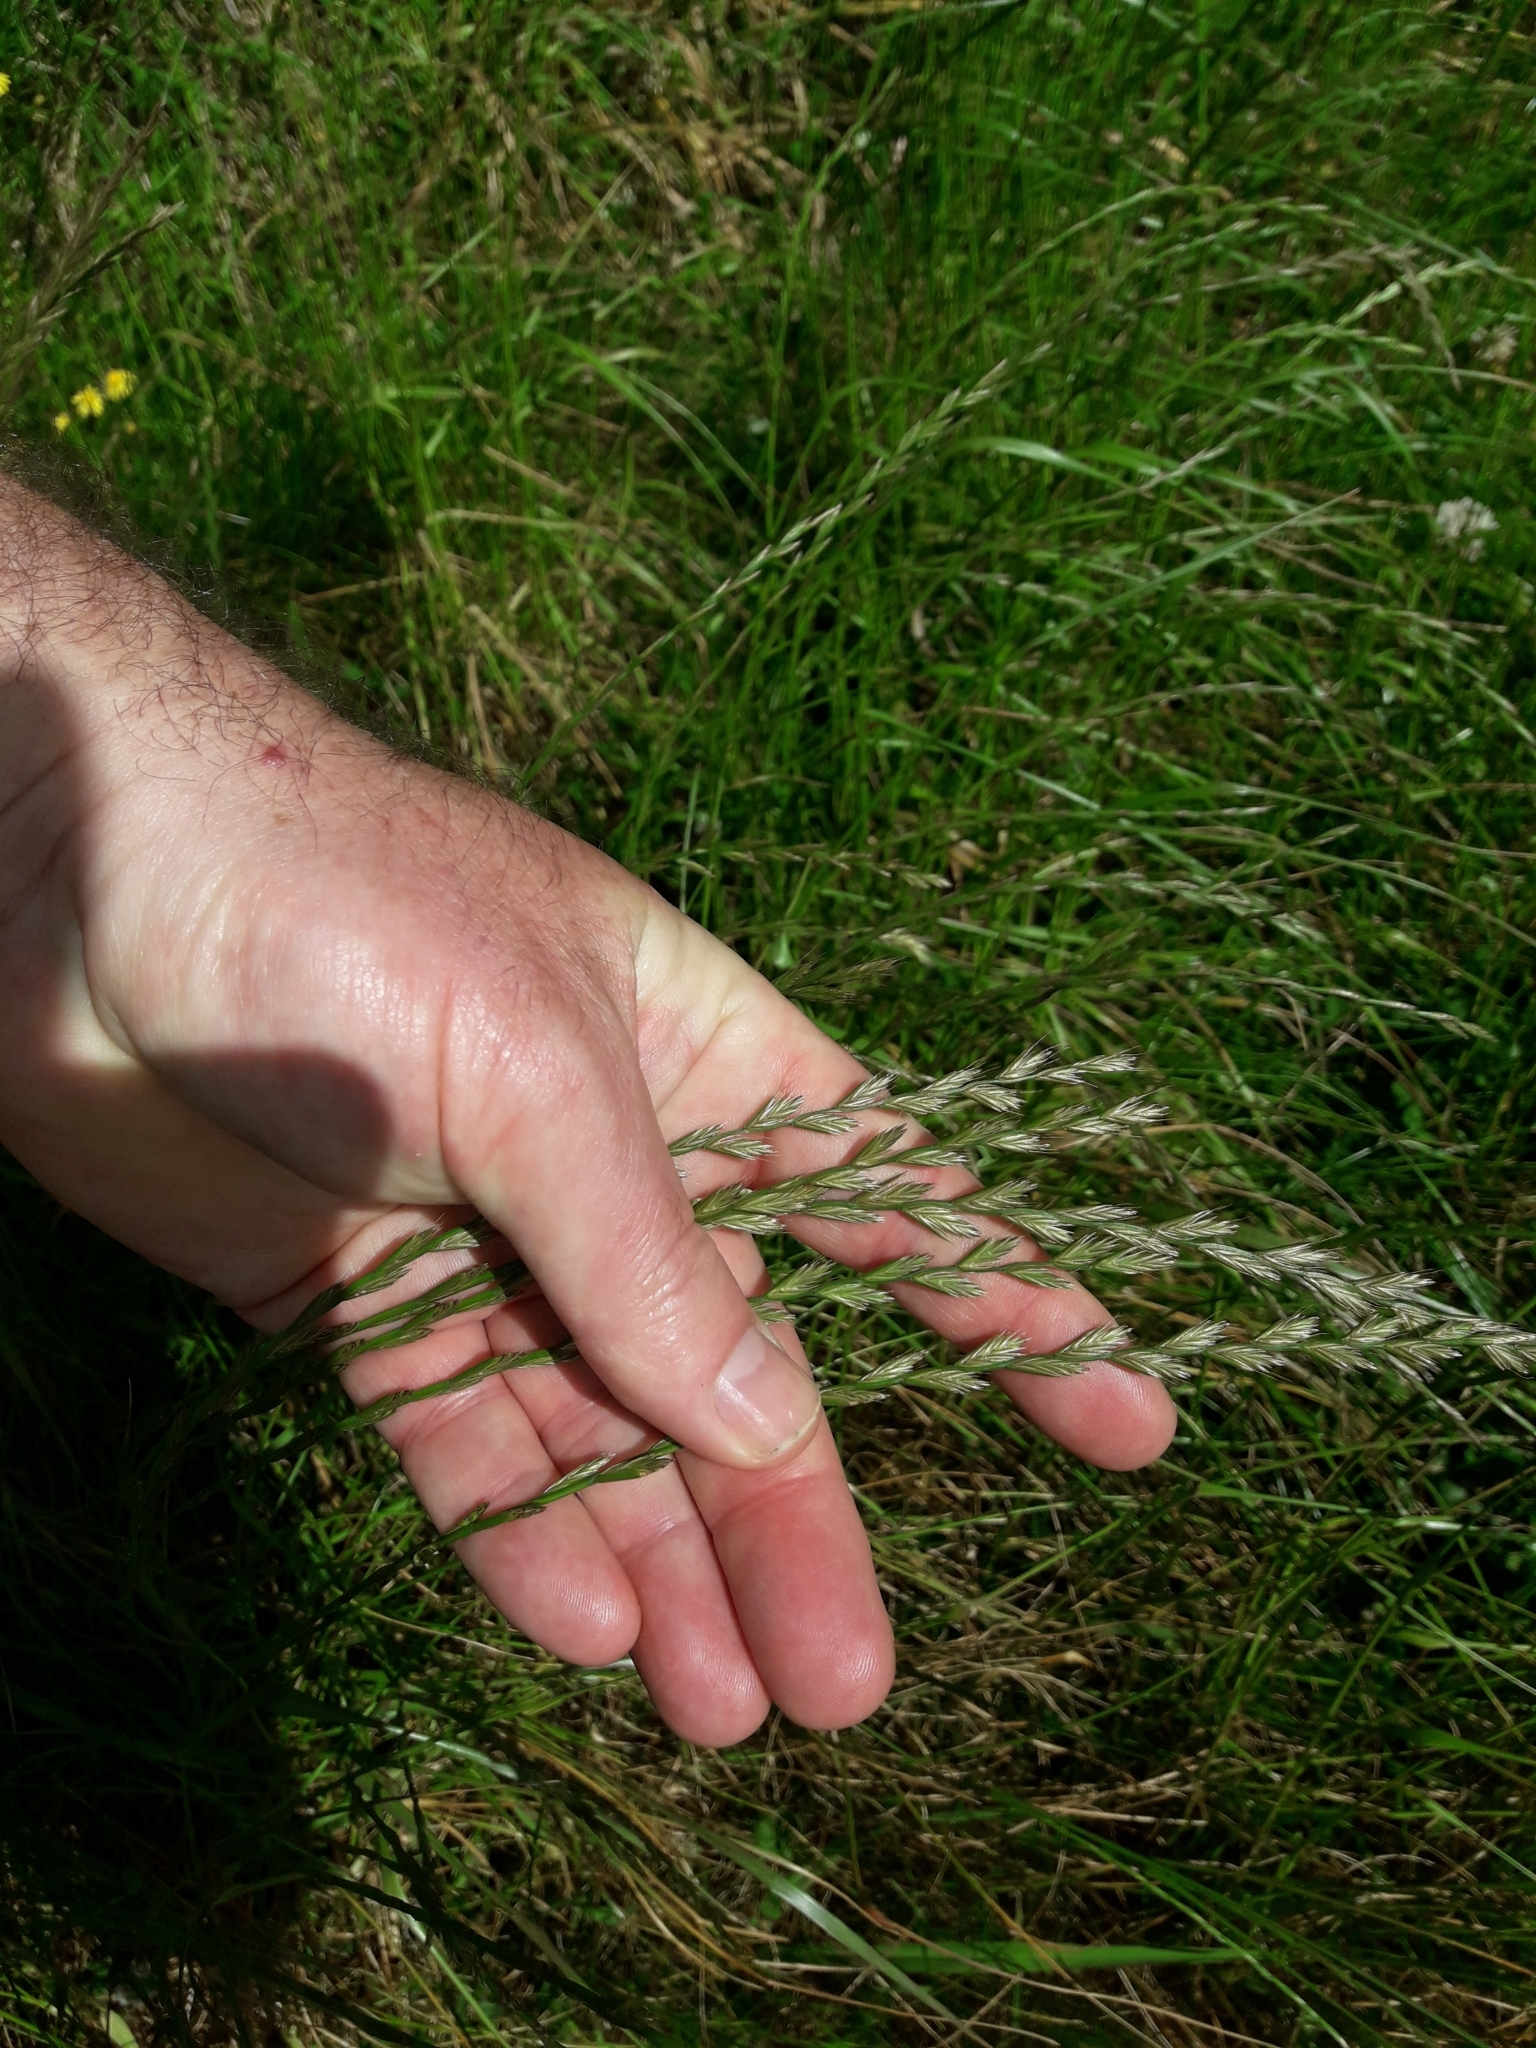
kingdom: Plantae
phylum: Tracheophyta
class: Liliopsida
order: Poales
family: Poaceae
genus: Lolium
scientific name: Lolium multiflorum
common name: Annual ryegrass
